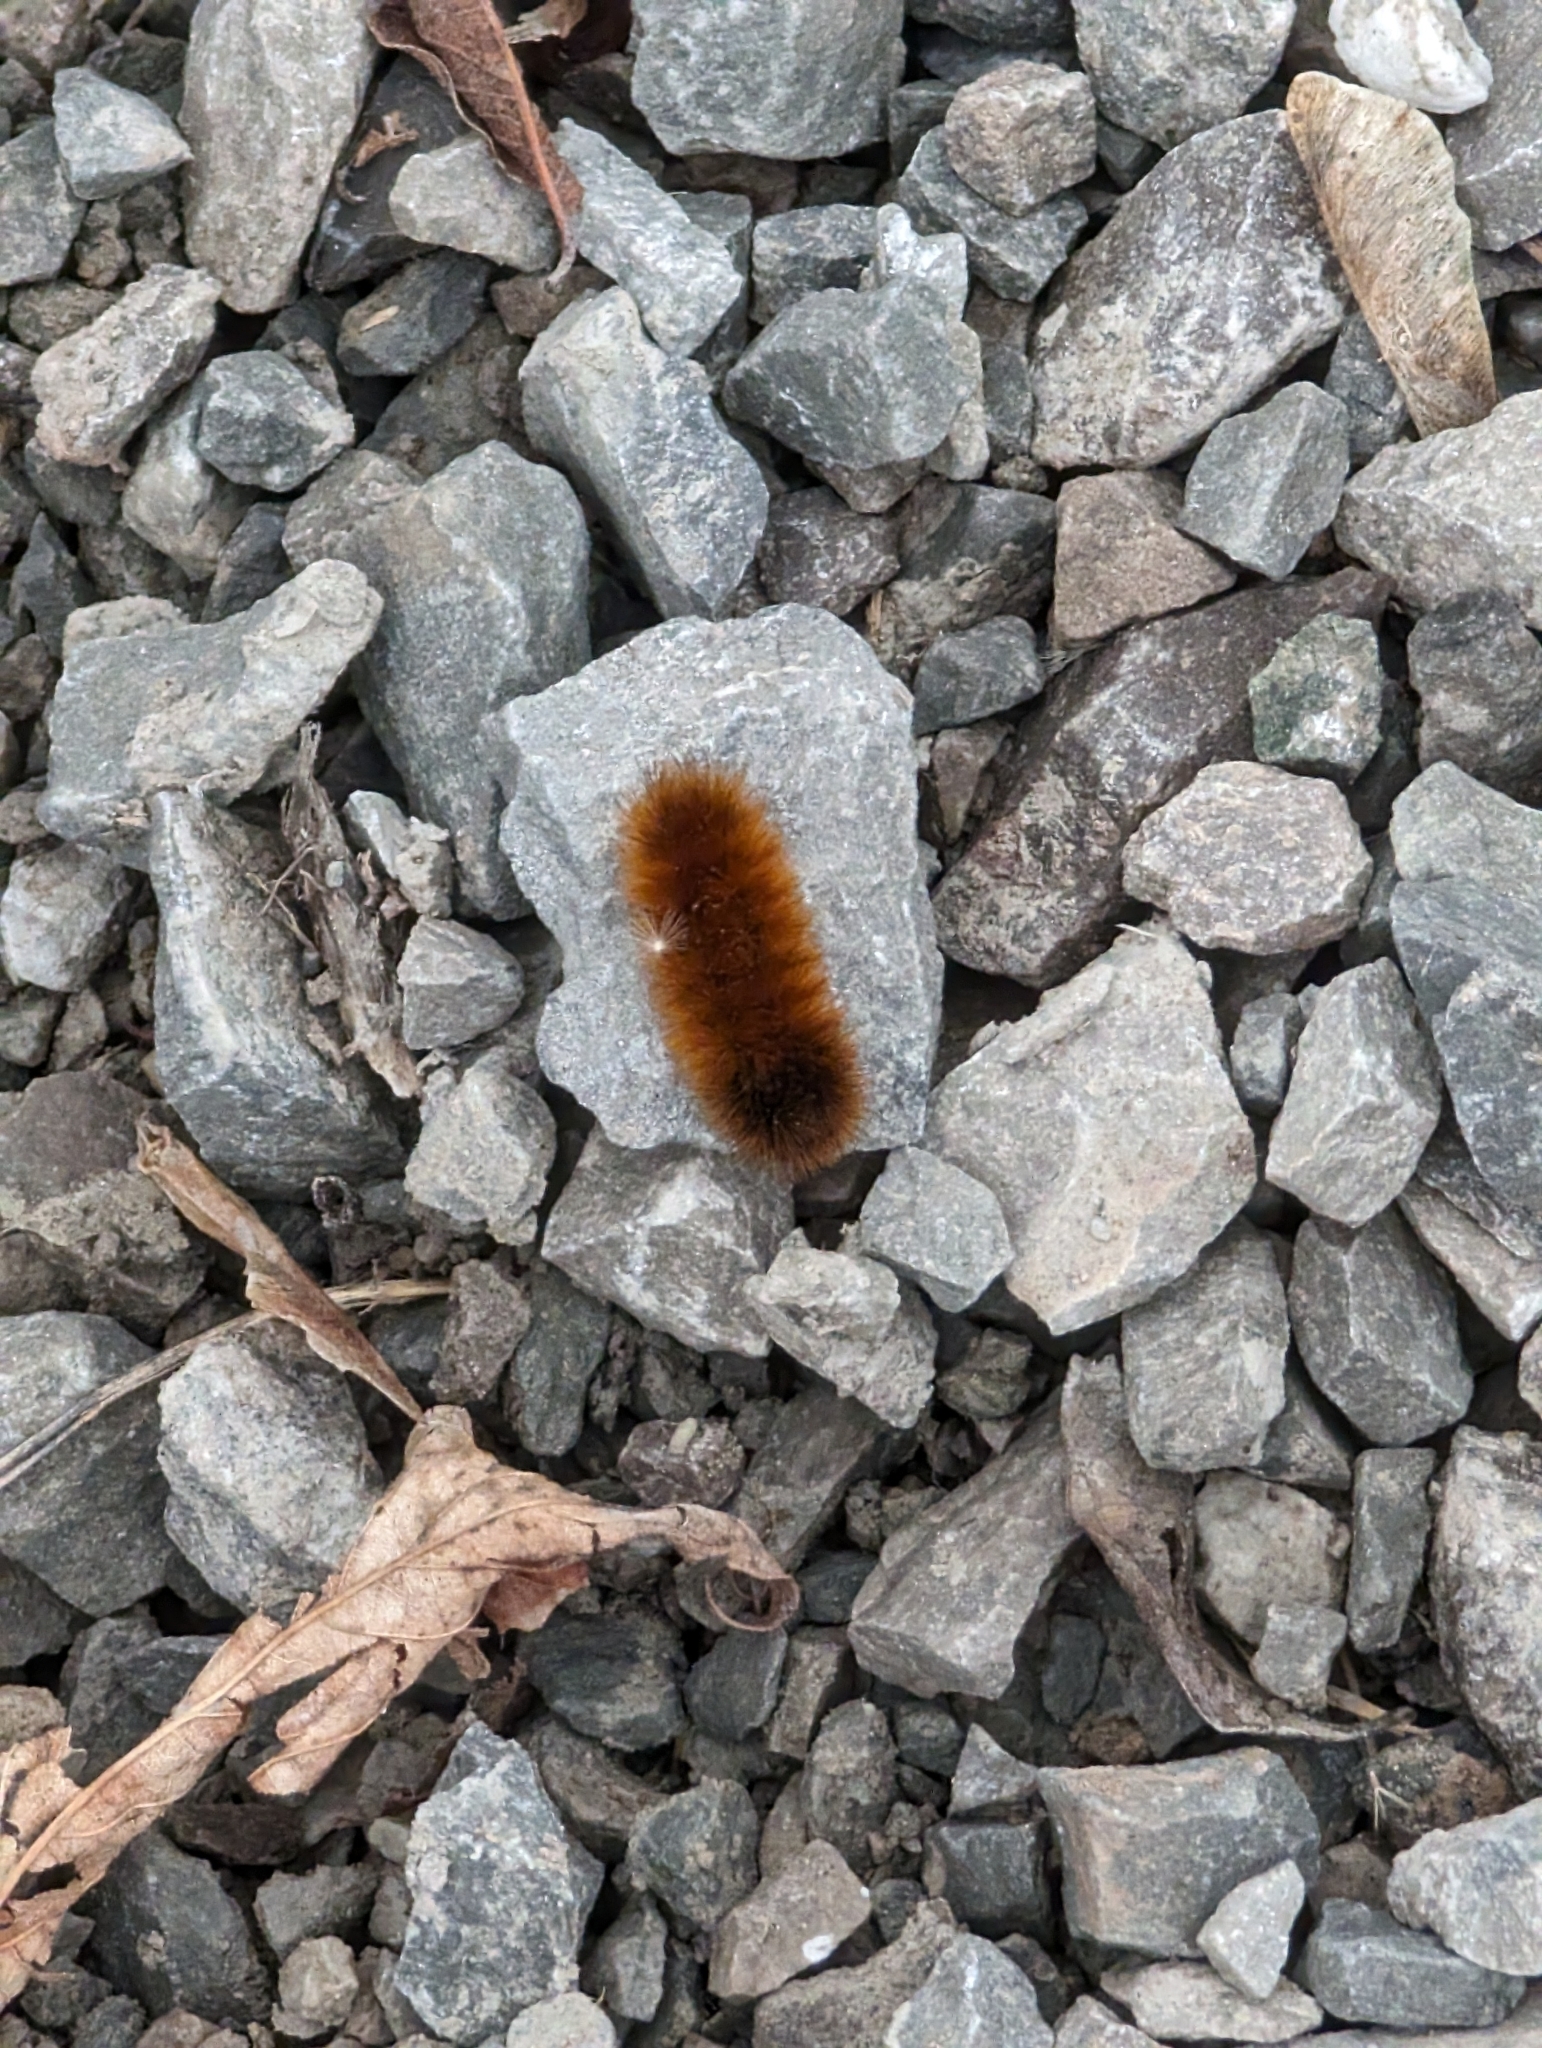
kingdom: Animalia
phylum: Arthropoda
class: Insecta
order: Lepidoptera
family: Erebidae
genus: Pyrrharctia
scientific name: Pyrrharctia isabella
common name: Isabella tiger moth
